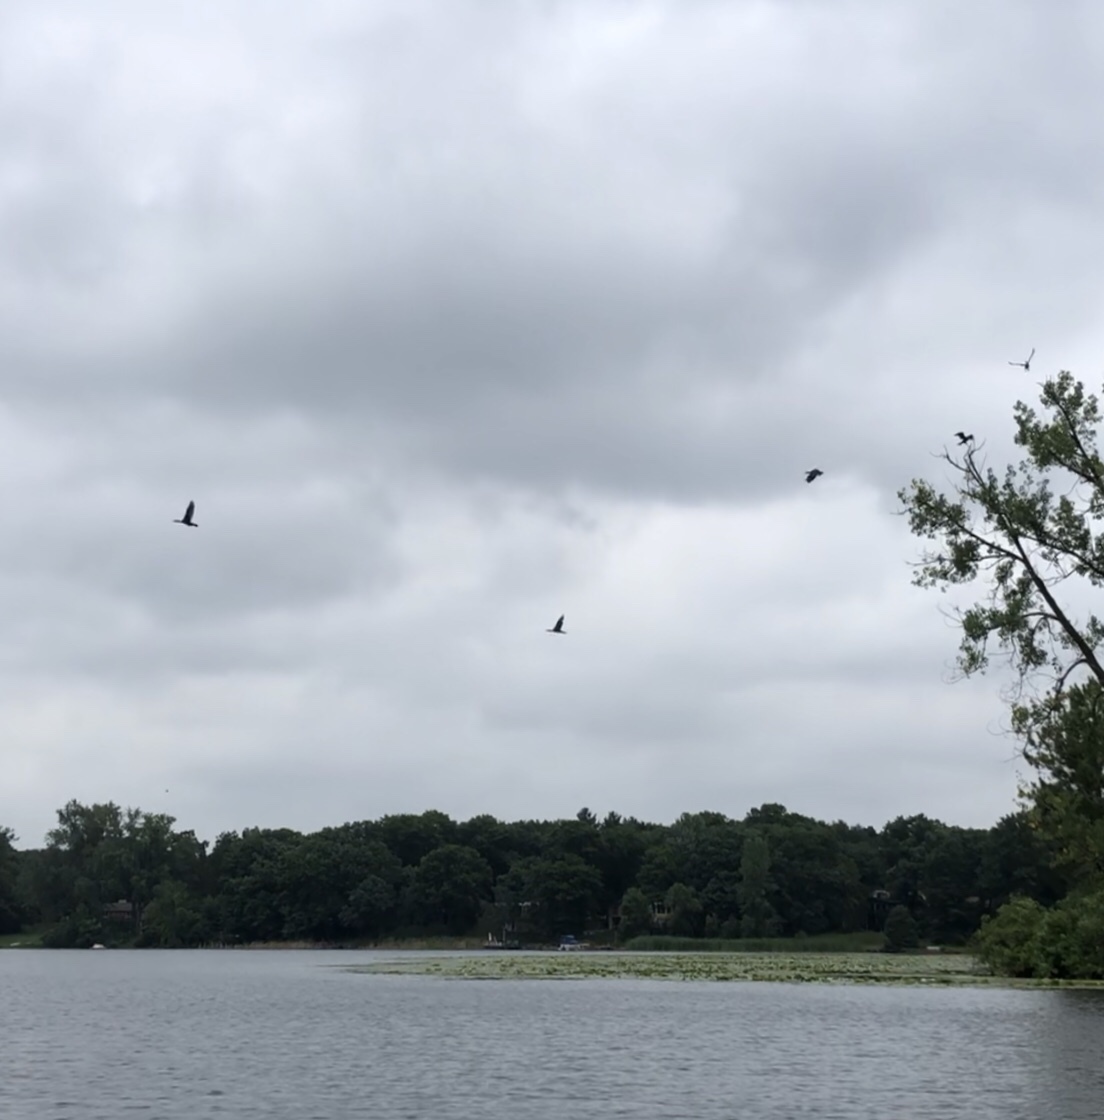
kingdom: Animalia
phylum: Chordata
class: Aves
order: Suliformes
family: Phalacrocoracidae
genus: Phalacrocorax
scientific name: Phalacrocorax auritus
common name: Double-crested cormorant
